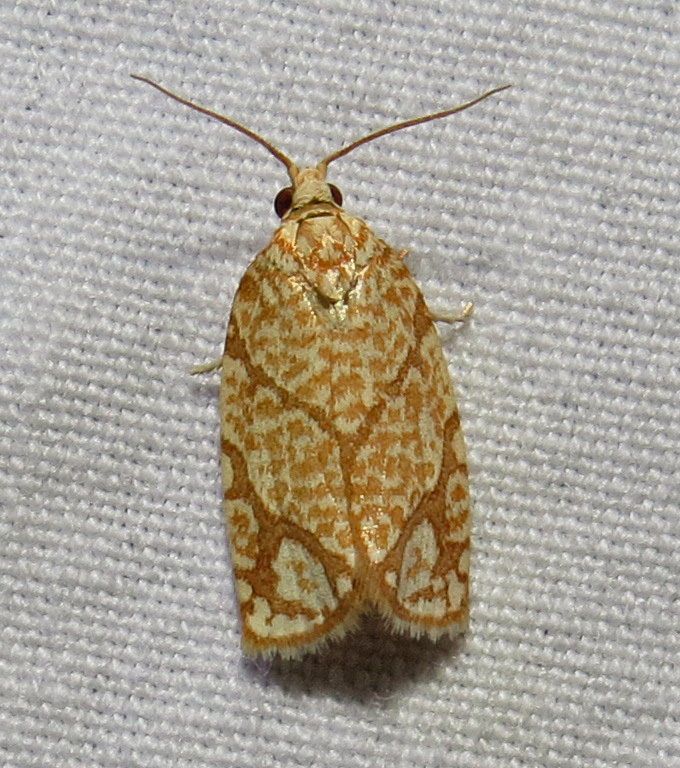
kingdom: Animalia
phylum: Arthropoda
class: Insecta
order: Lepidoptera
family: Tortricidae
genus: Argyrotaenia
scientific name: Argyrotaenia quercifoliana
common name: Yellow-winged oak leafroller moth
